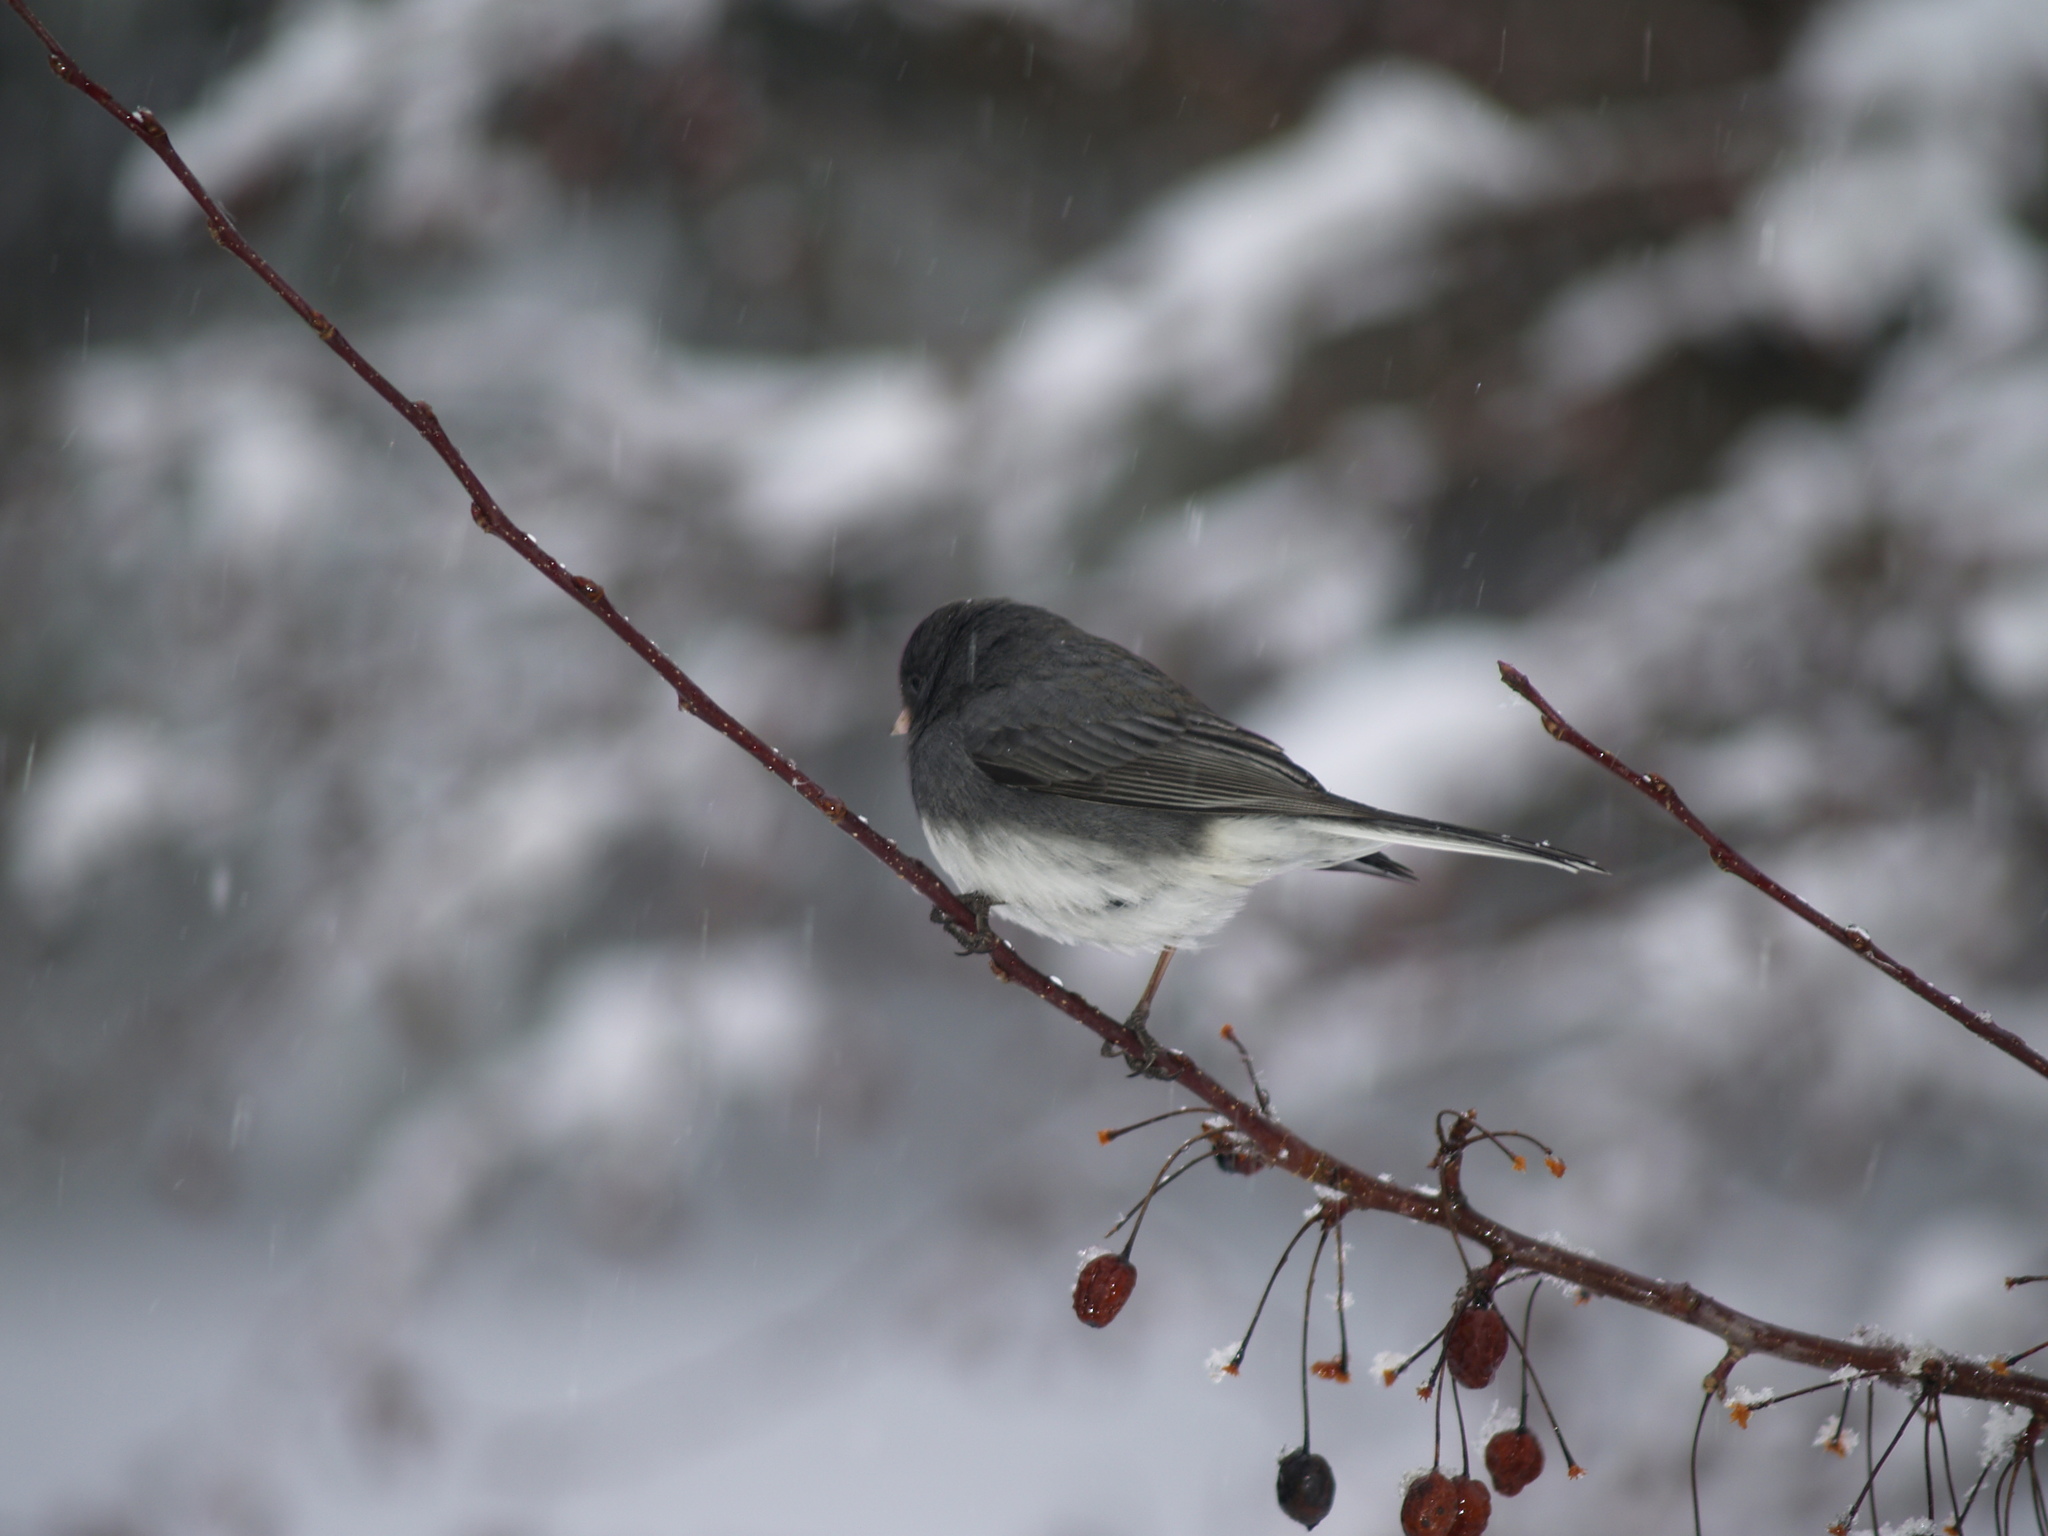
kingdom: Animalia
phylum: Chordata
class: Aves
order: Passeriformes
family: Passerellidae
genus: Junco
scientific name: Junco hyemalis
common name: Dark-eyed junco
